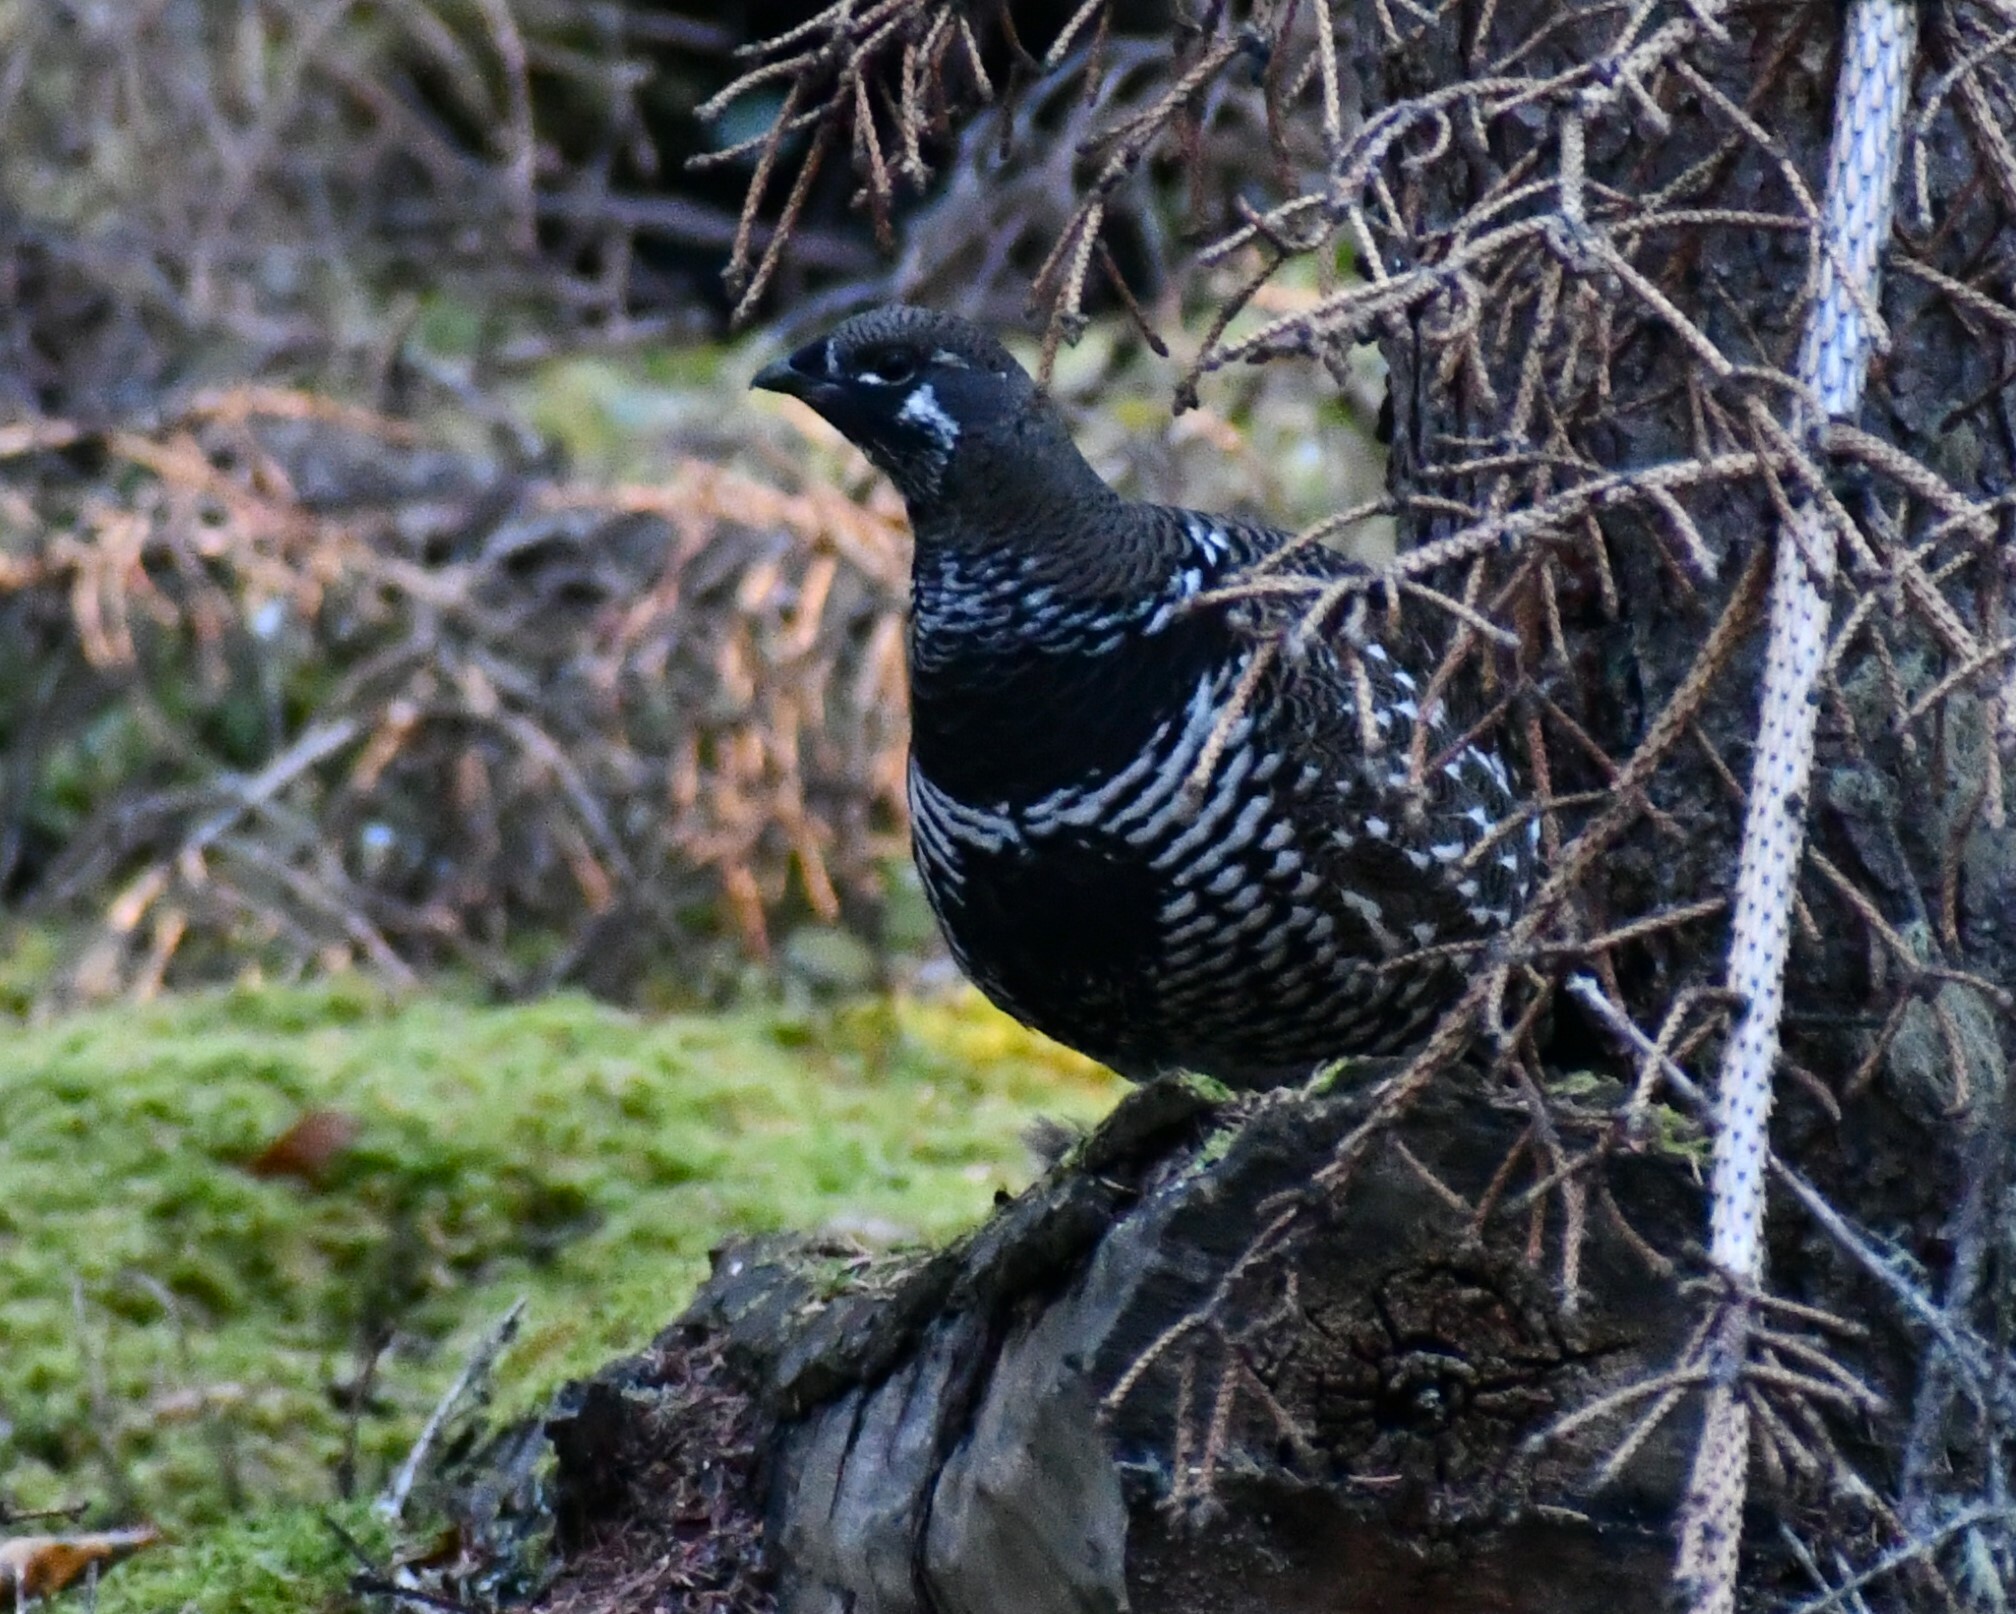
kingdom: Animalia
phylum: Chordata
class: Aves
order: Galliformes
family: Phasianidae
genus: Canachites
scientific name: Canachites canadensis
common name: Spruce grouse
